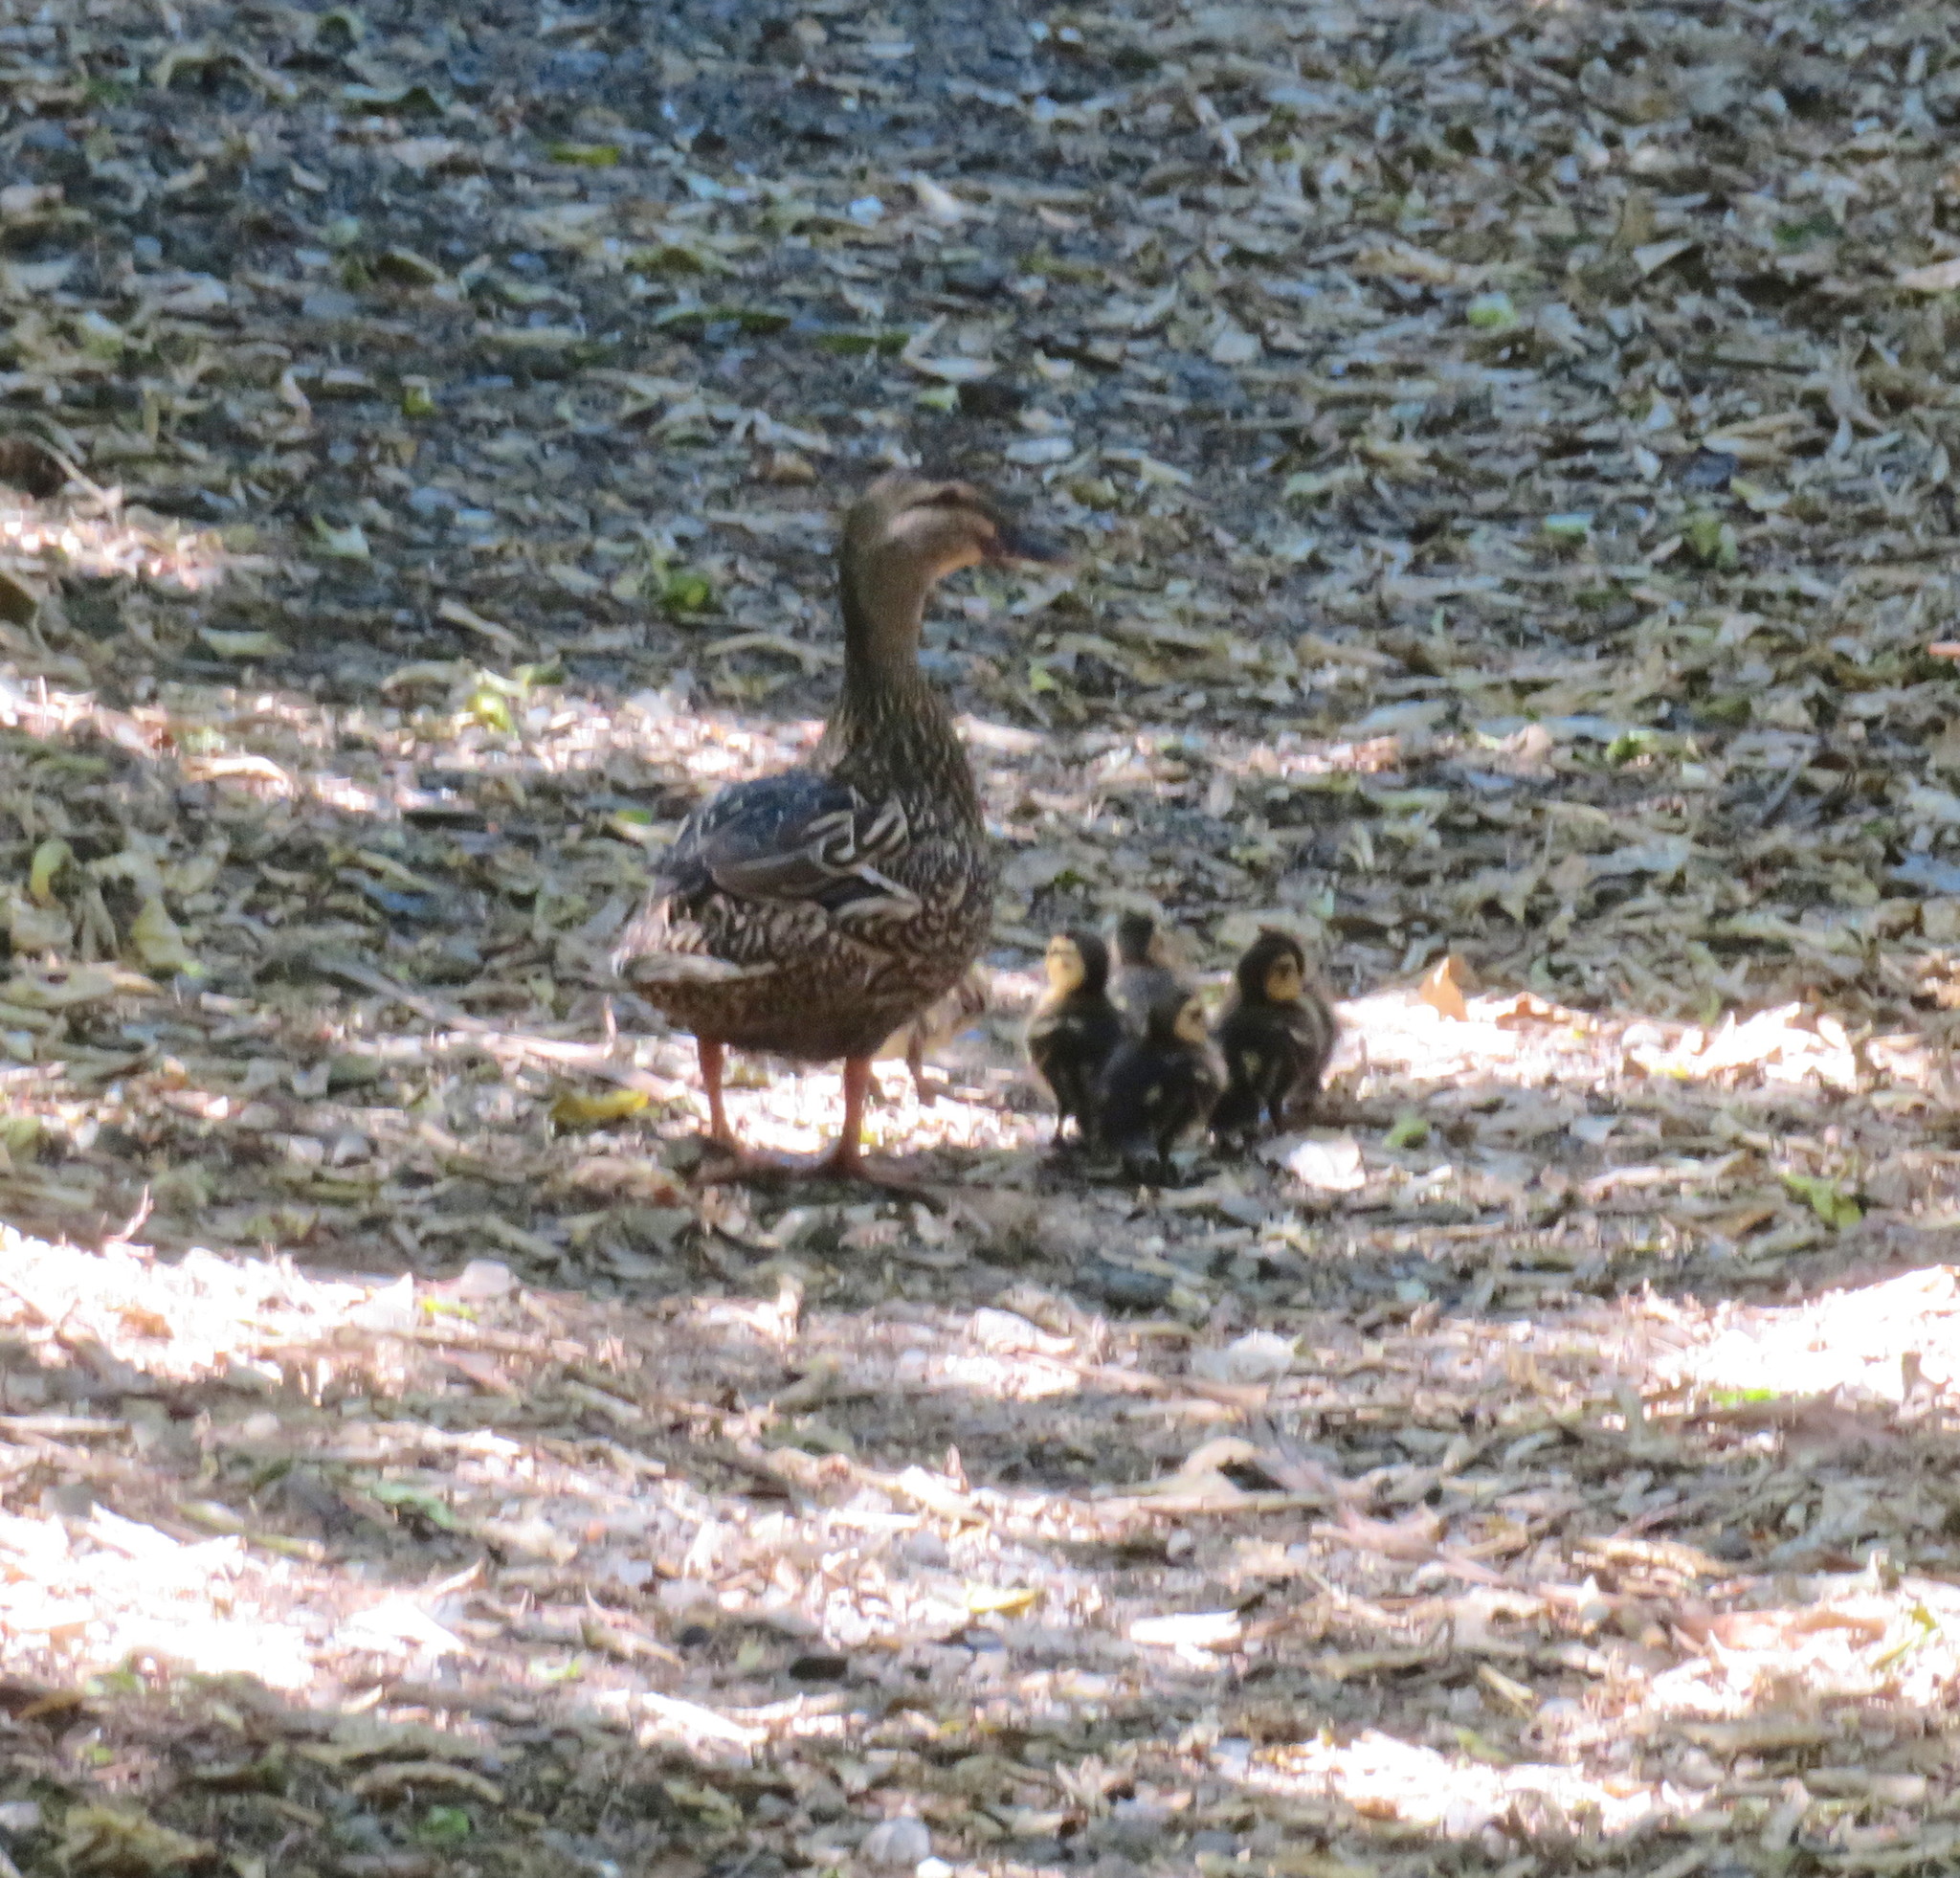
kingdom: Animalia
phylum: Chordata
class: Aves
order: Anseriformes
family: Anatidae
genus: Anas
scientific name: Anas
